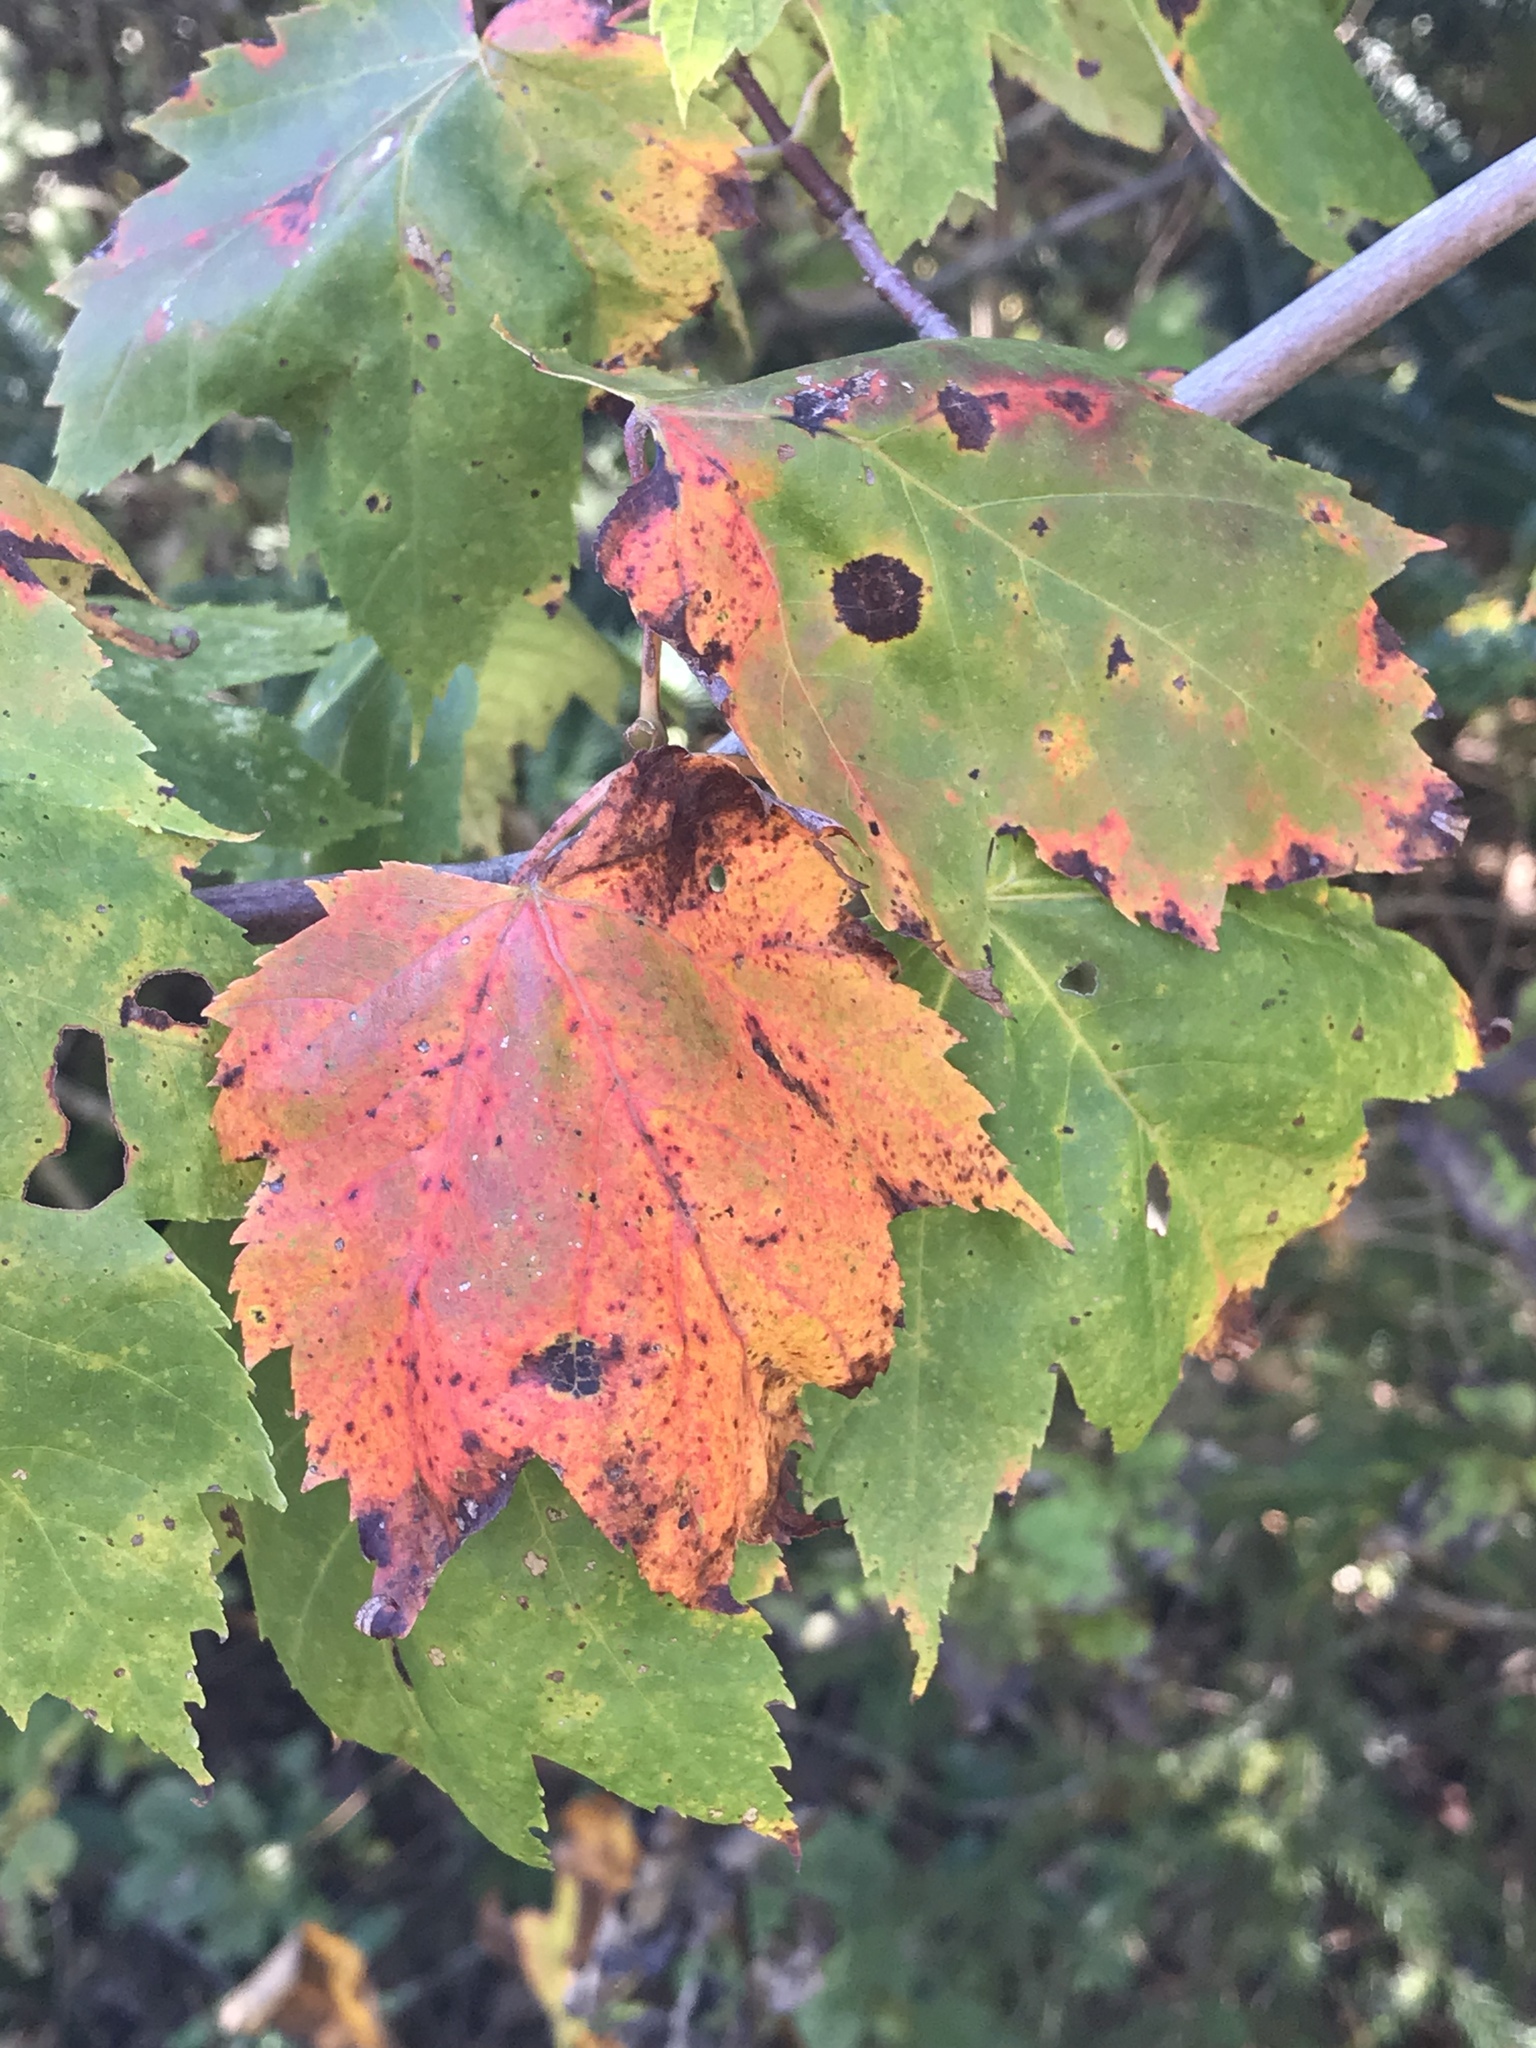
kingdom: Plantae
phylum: Tracheophyta
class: Magnoliopsida
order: Sapindales
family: Sapindaceae
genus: Acer
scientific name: Acer rubrum
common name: Red maple
